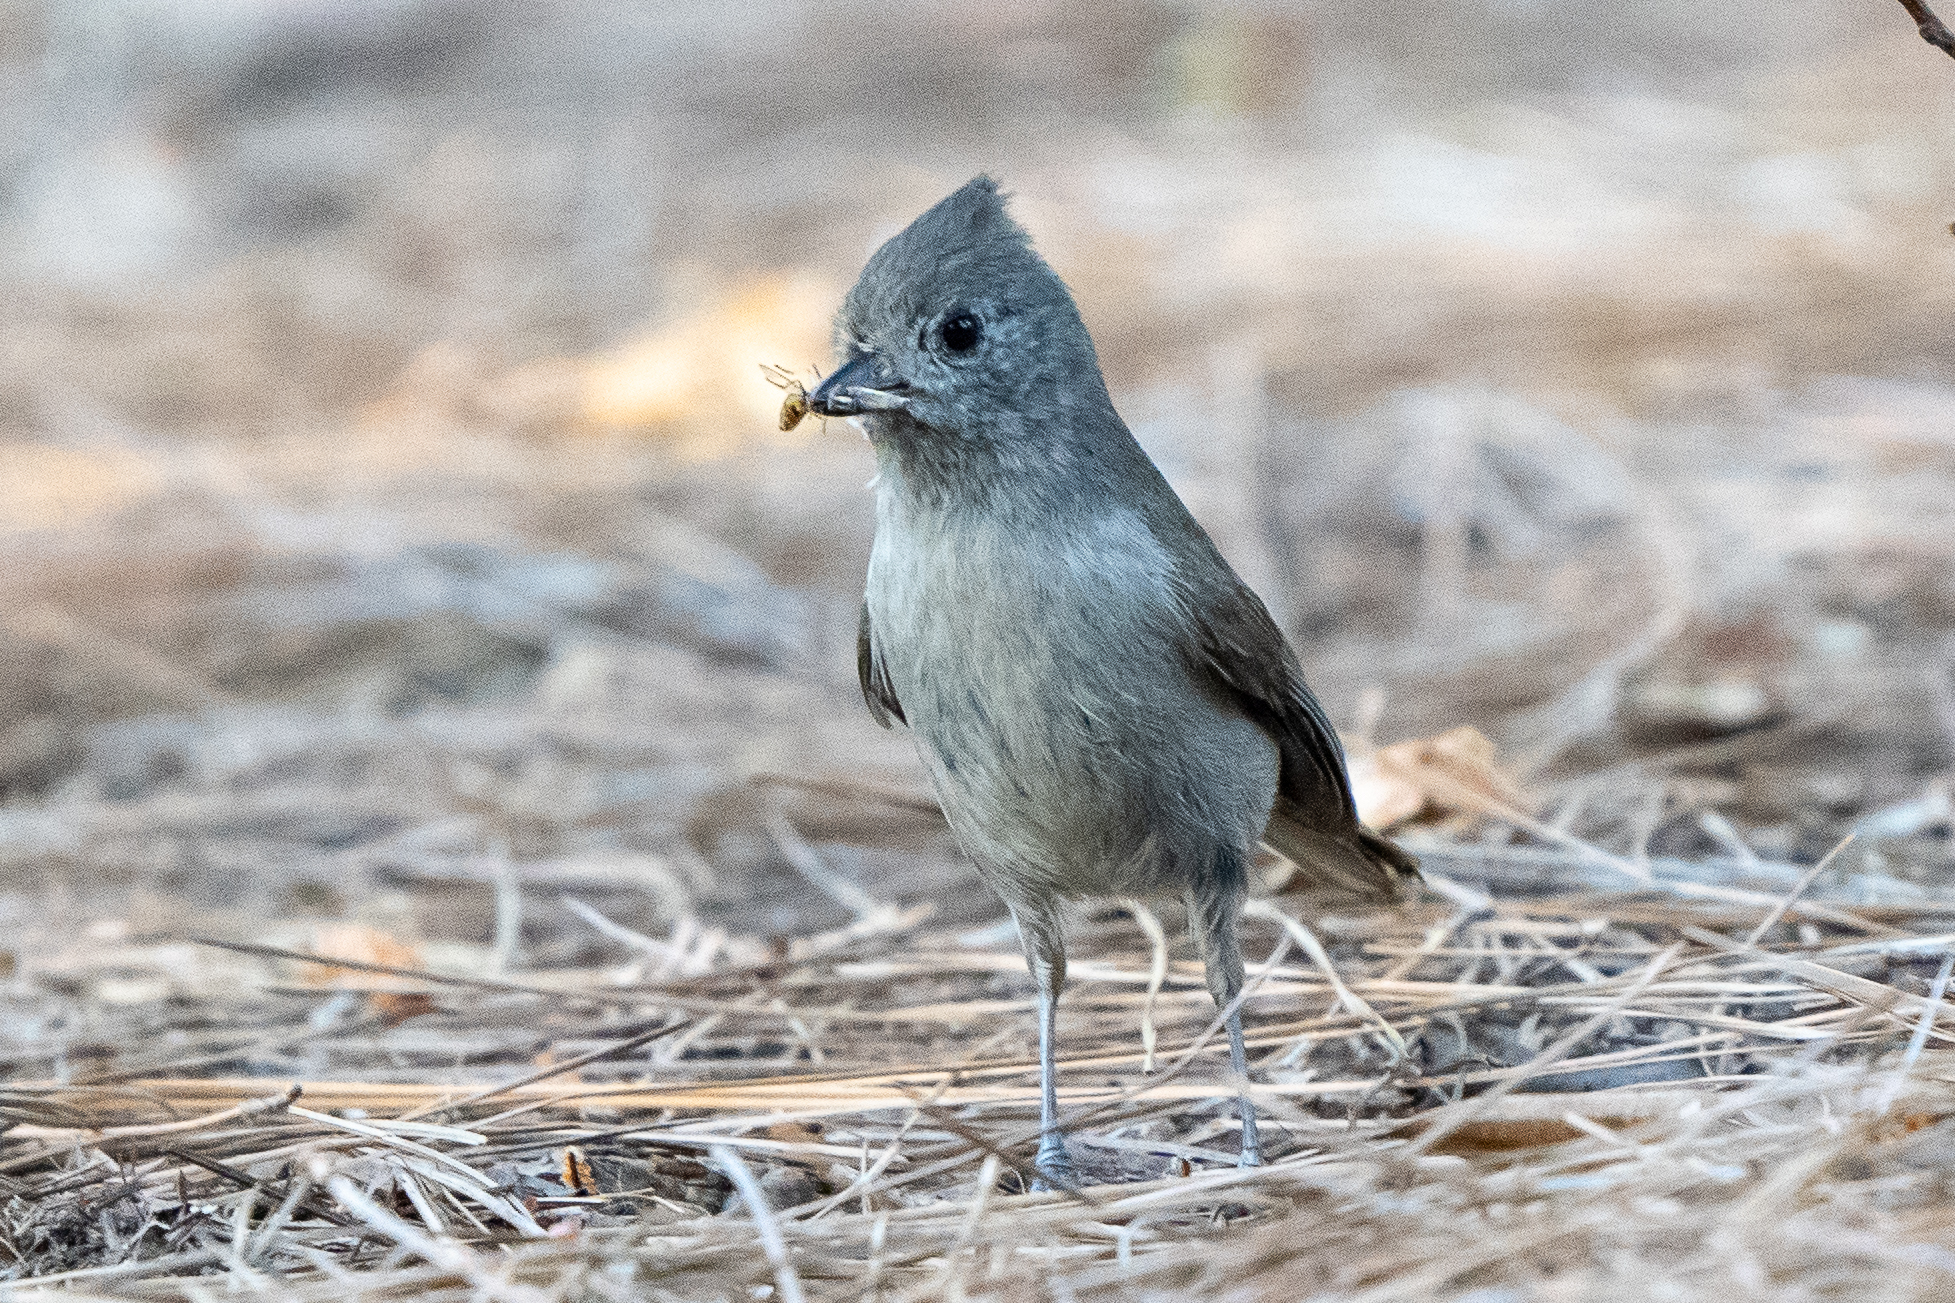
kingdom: Animalia
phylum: Chordata
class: Aves
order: Passeriformes
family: Paridae
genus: Baeolophus
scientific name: Baeolophus inornatus
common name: Oak titmouse
